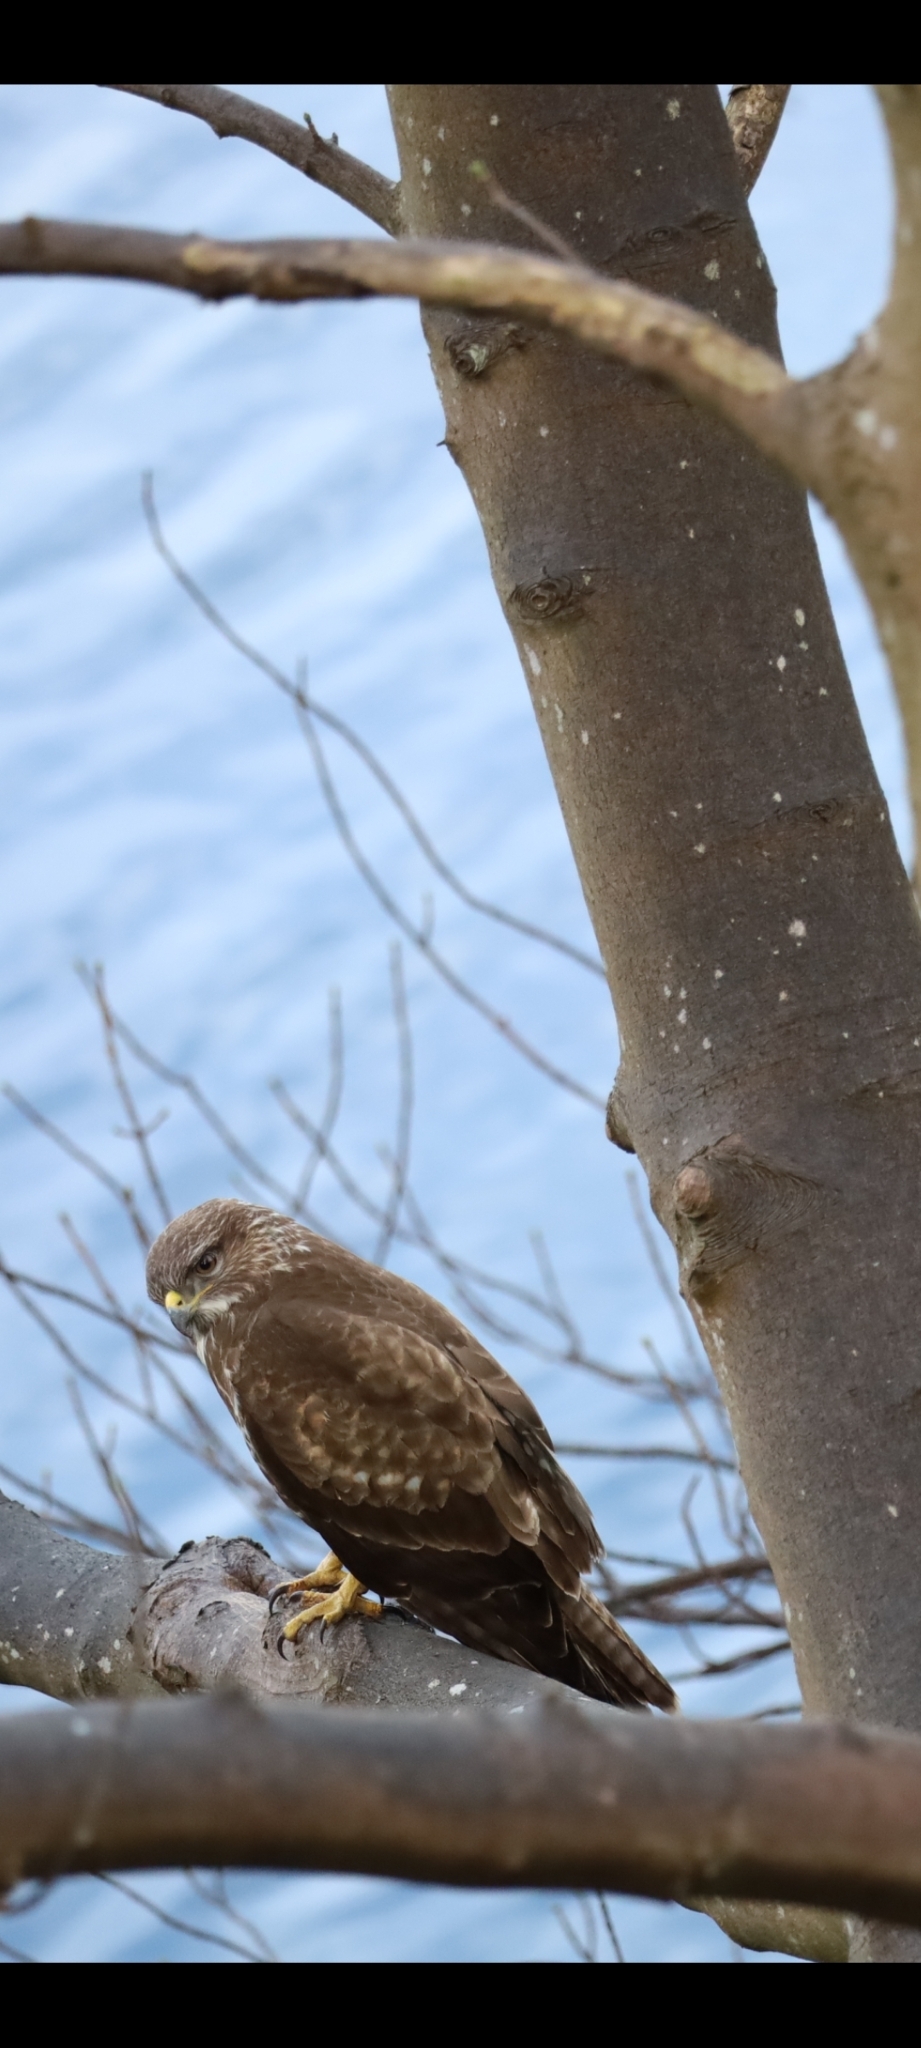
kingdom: Animalia
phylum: Chordata
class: Aves
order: Accipitriformes
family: Accipitridae
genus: Buteo
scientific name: Buteo buteo
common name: Common buzzard
